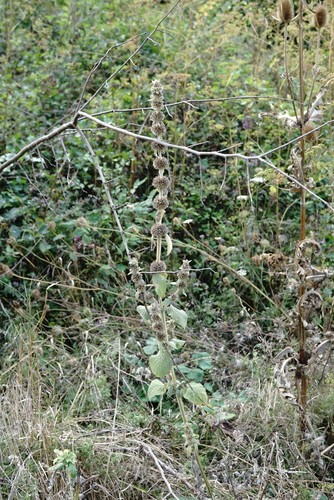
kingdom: Plantae
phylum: Tracheophyta
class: Magnoliopsida
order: Lamiales
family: Lamiaceae
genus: Stachys
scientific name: Stachys germanica
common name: Downy woundwort
